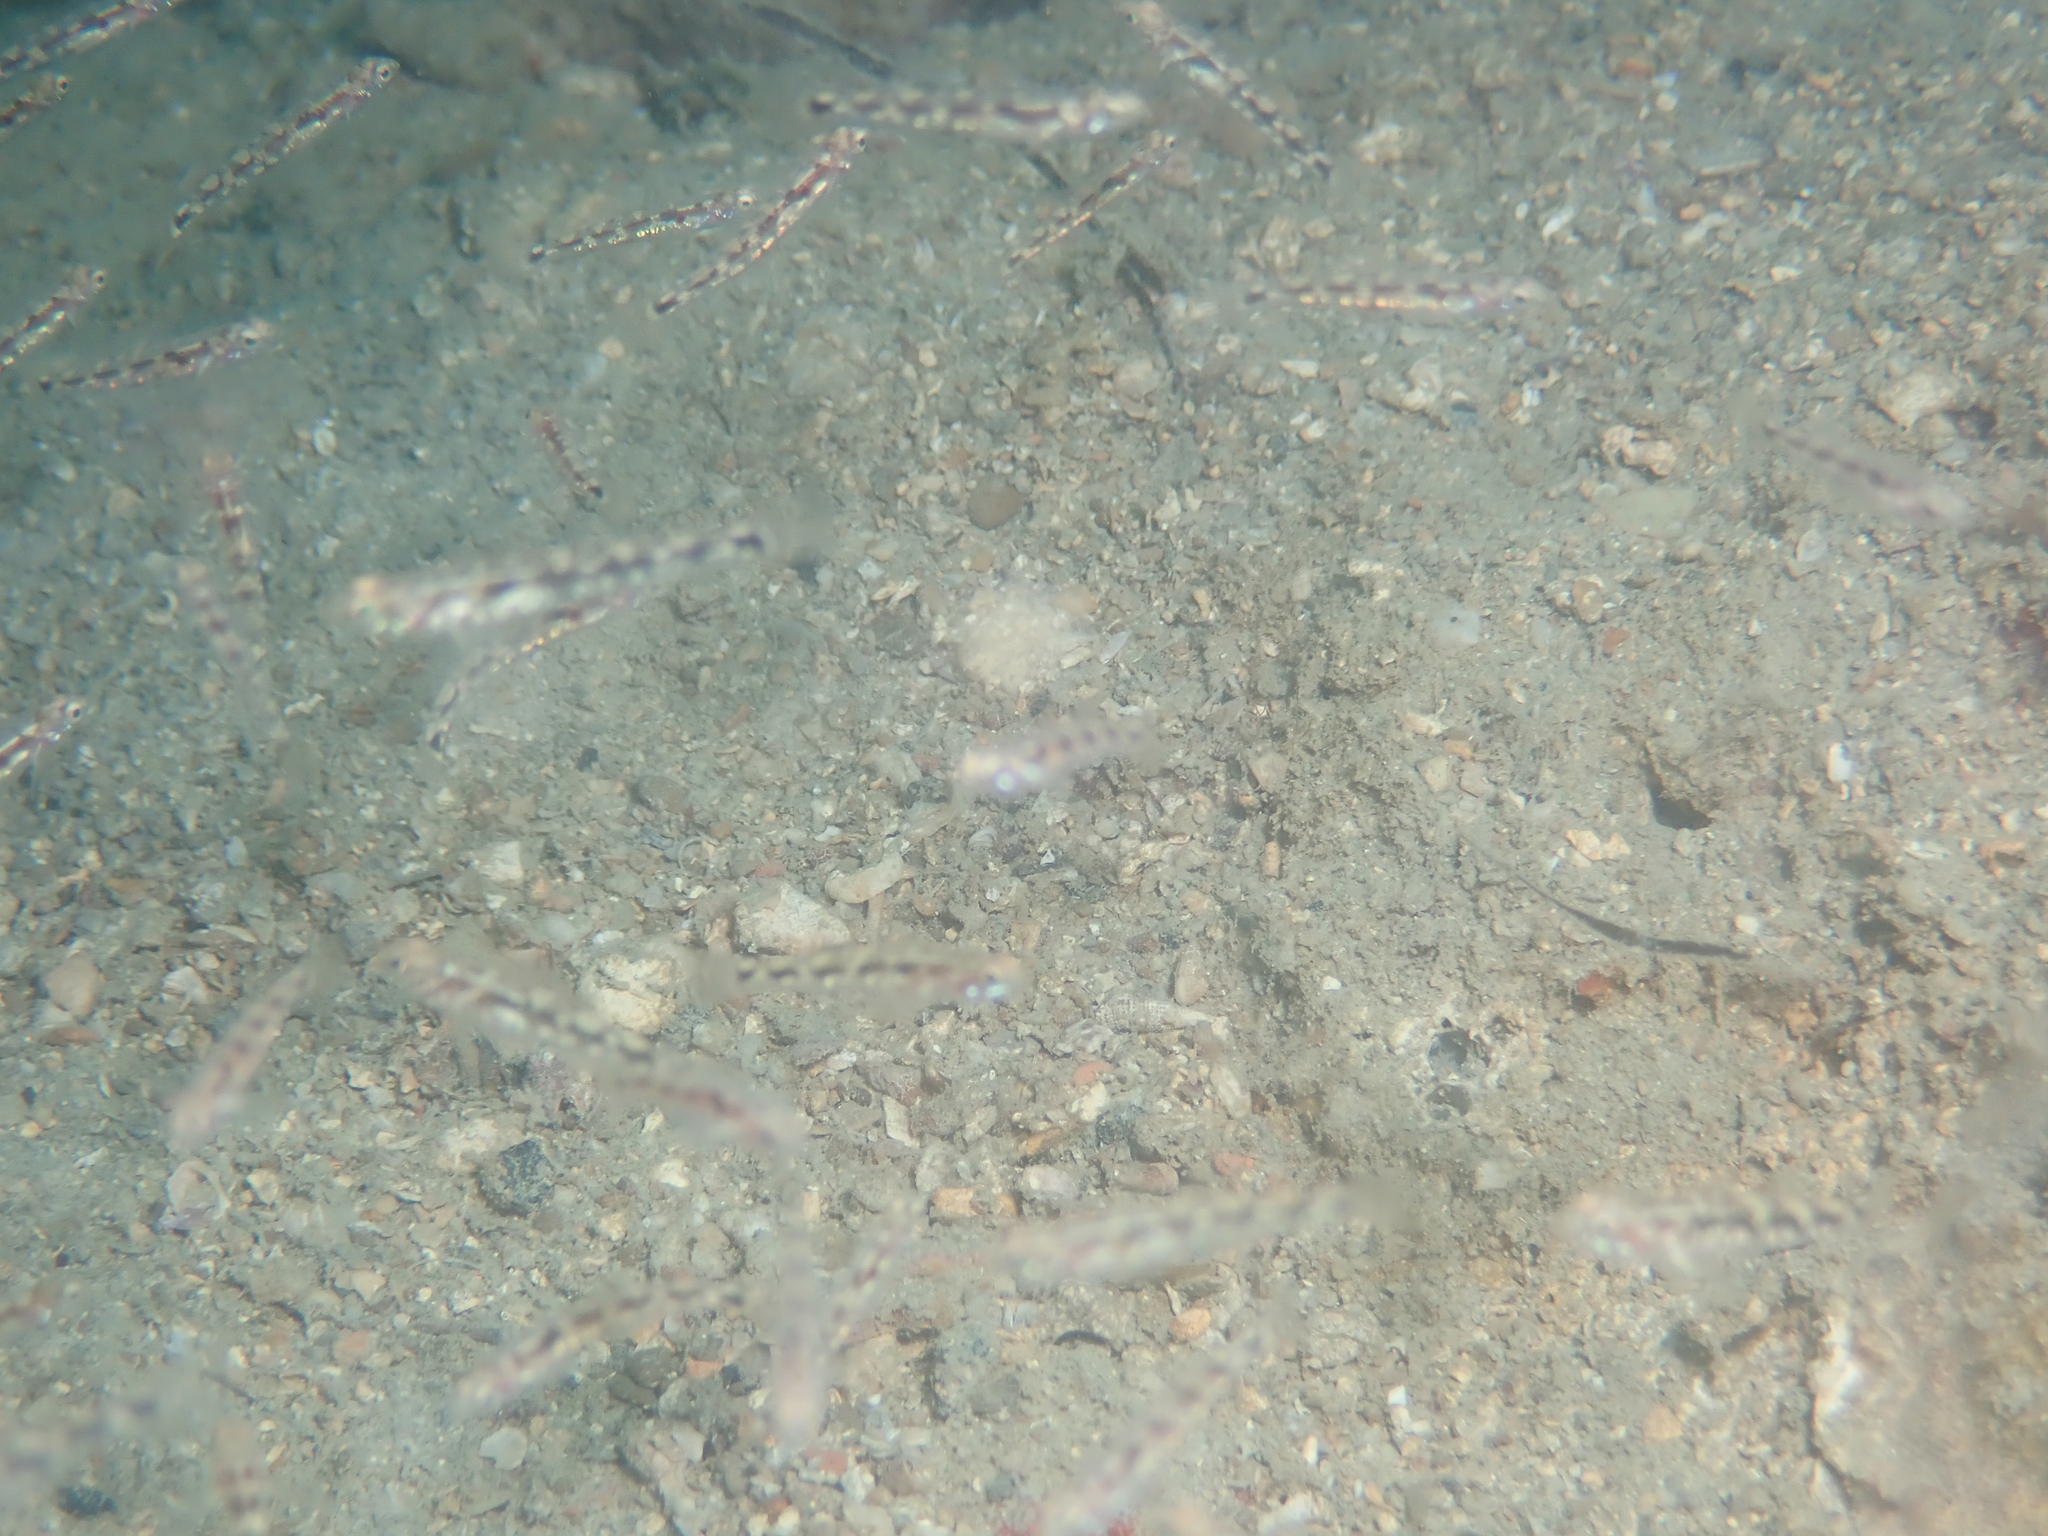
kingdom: Animalia
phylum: Chordata
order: Perciformes
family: Gobiidae
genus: Pomatoschistus
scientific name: Pomatoschistus quagga
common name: Quagga goby
